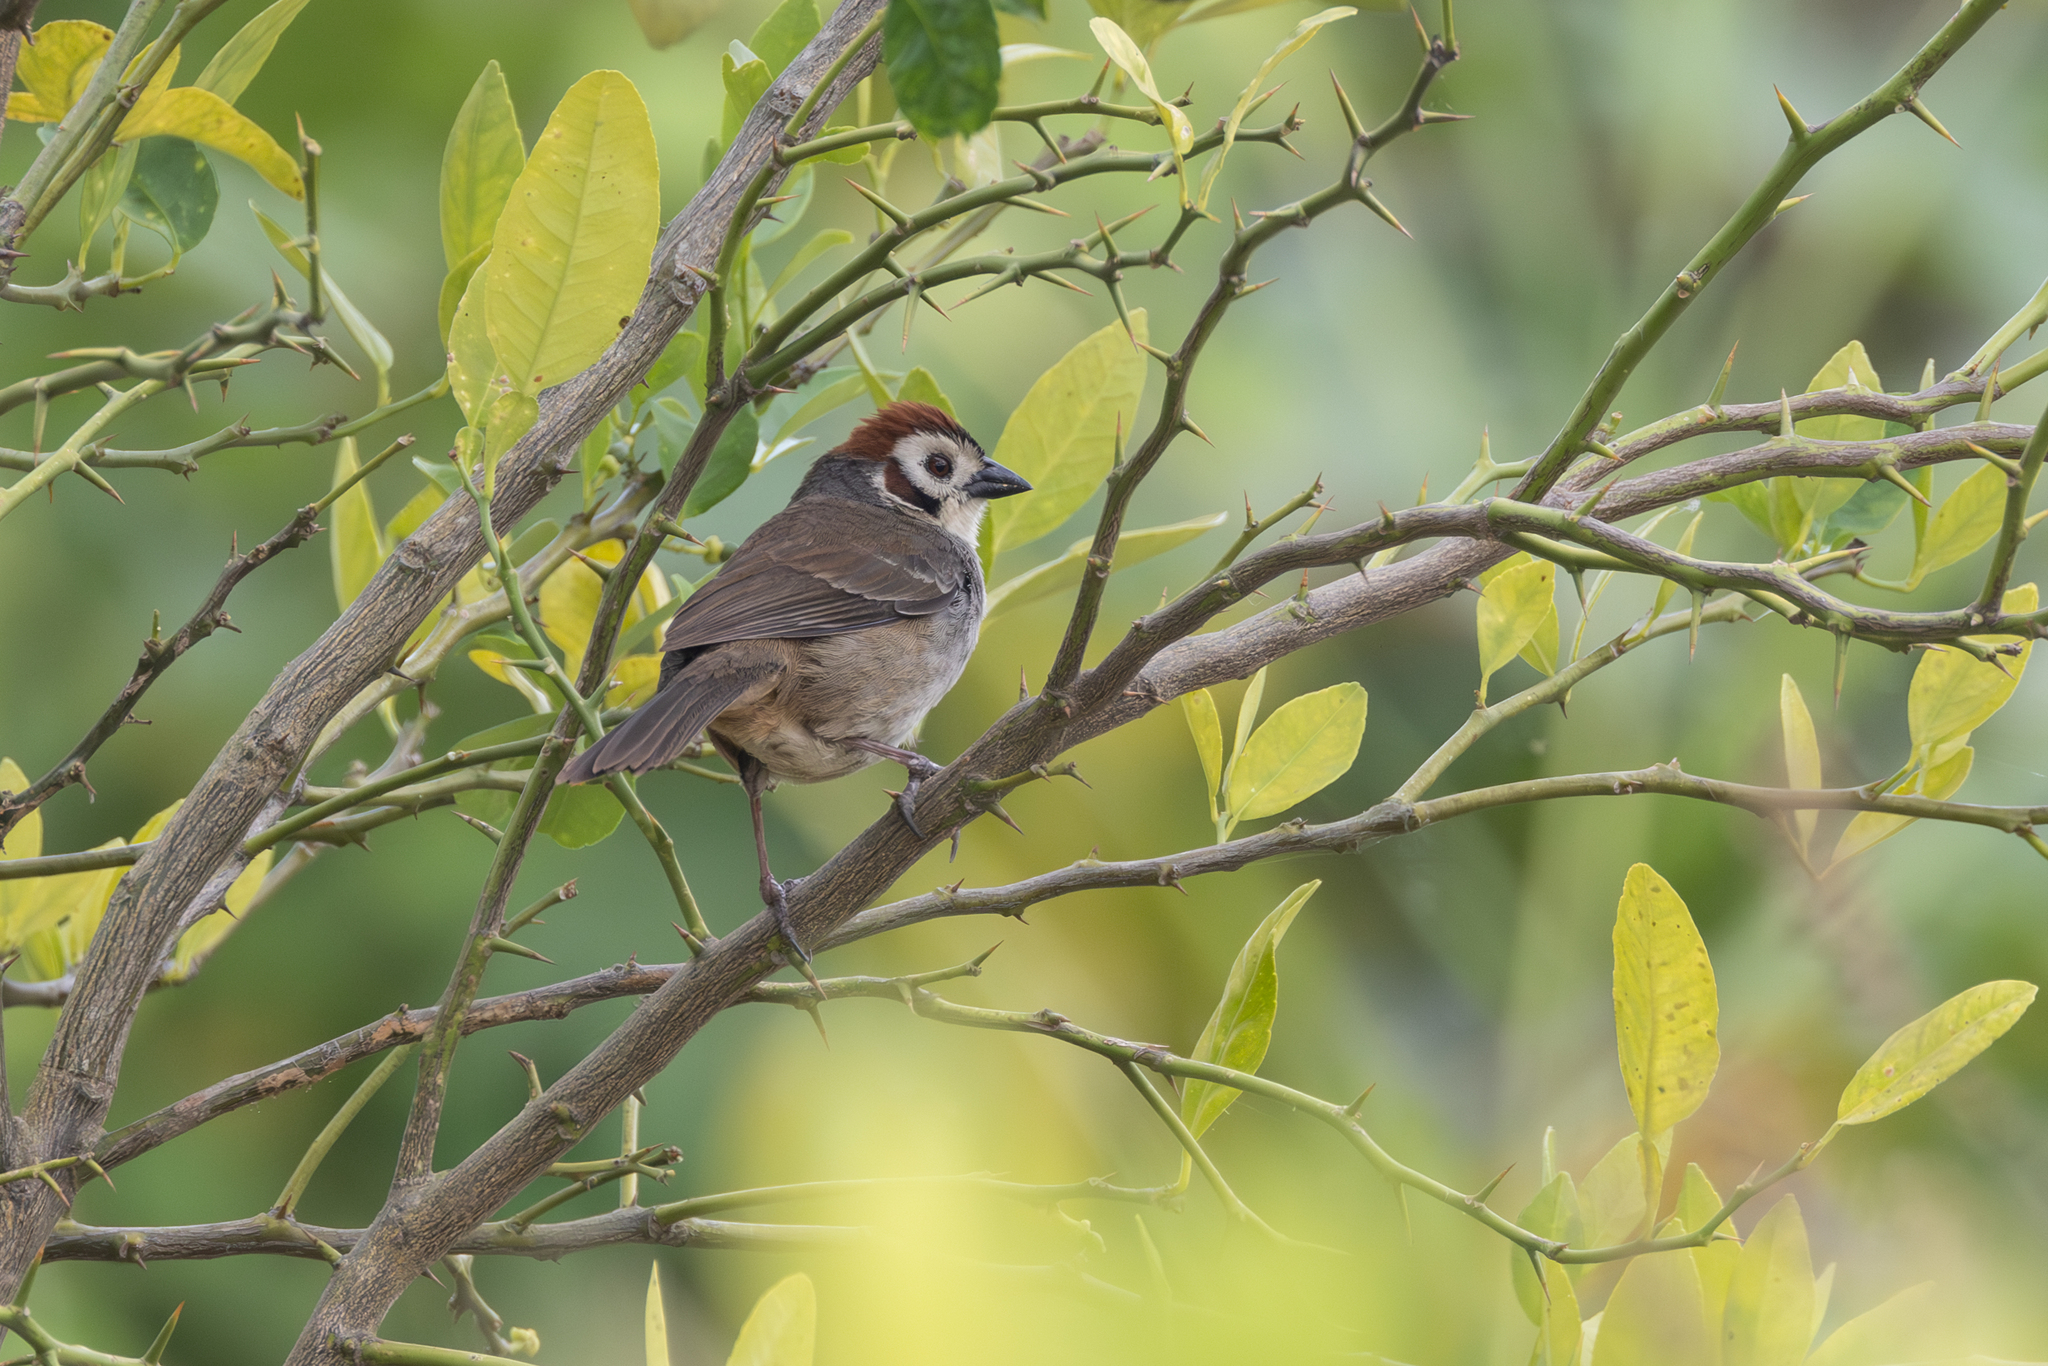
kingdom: Animalia
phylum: Chordata
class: Aves
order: Passeriformes
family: Passerellidae
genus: Melozone
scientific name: Melozone biarcuata
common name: Prevost's ground-sparrow
